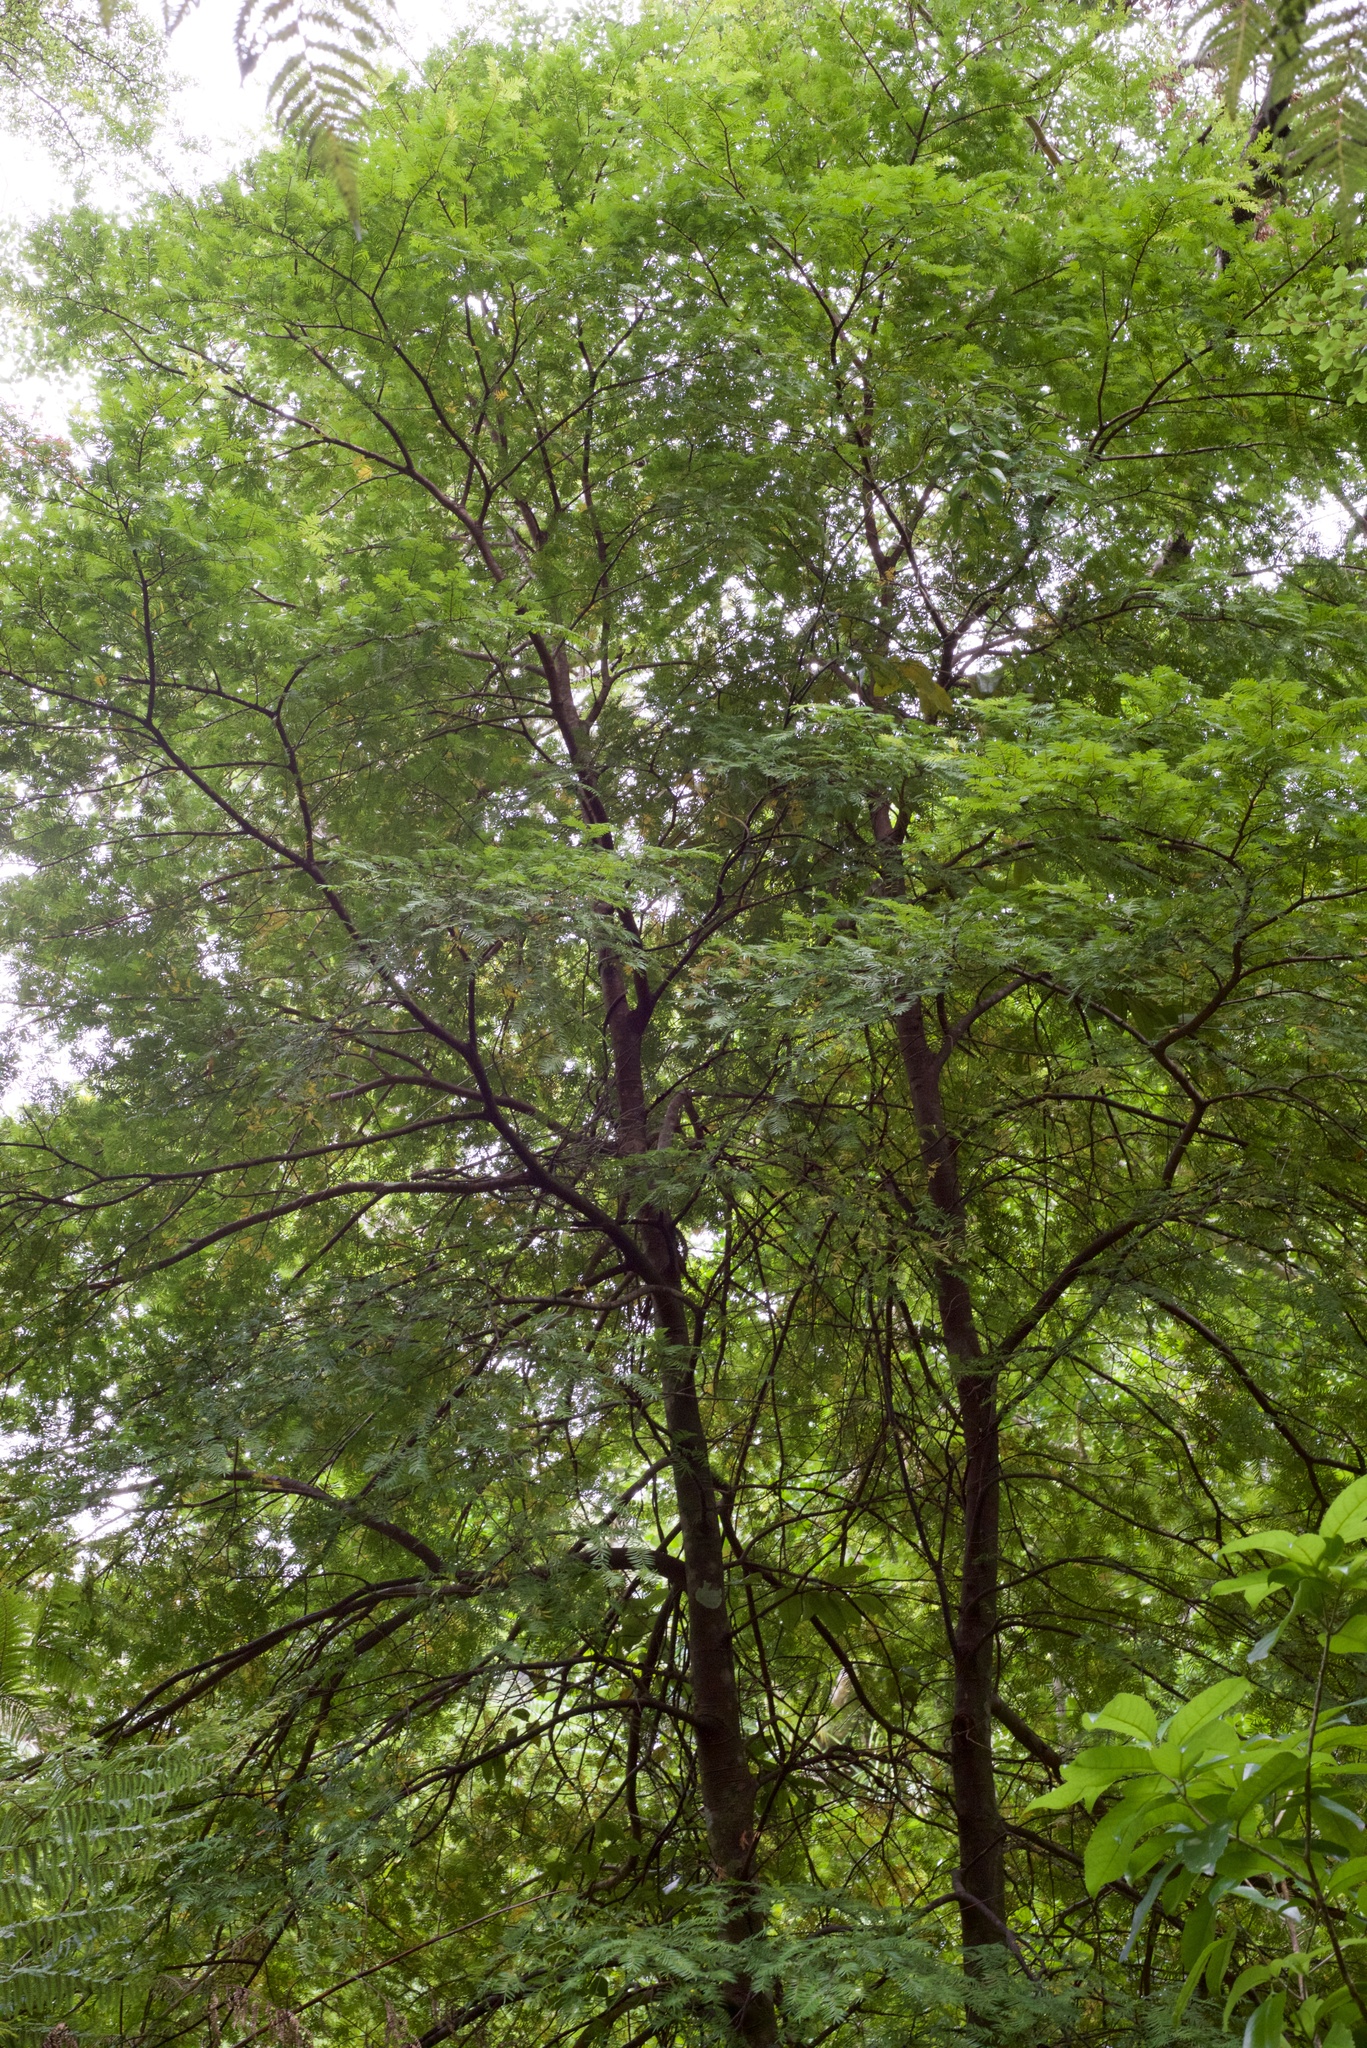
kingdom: Plantae
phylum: Tracheophyta
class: Pinopsida
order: Pinales
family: Podocarpaceae
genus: Prumnopitys
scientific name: Prumnopitys ferruginea
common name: Brown pine
